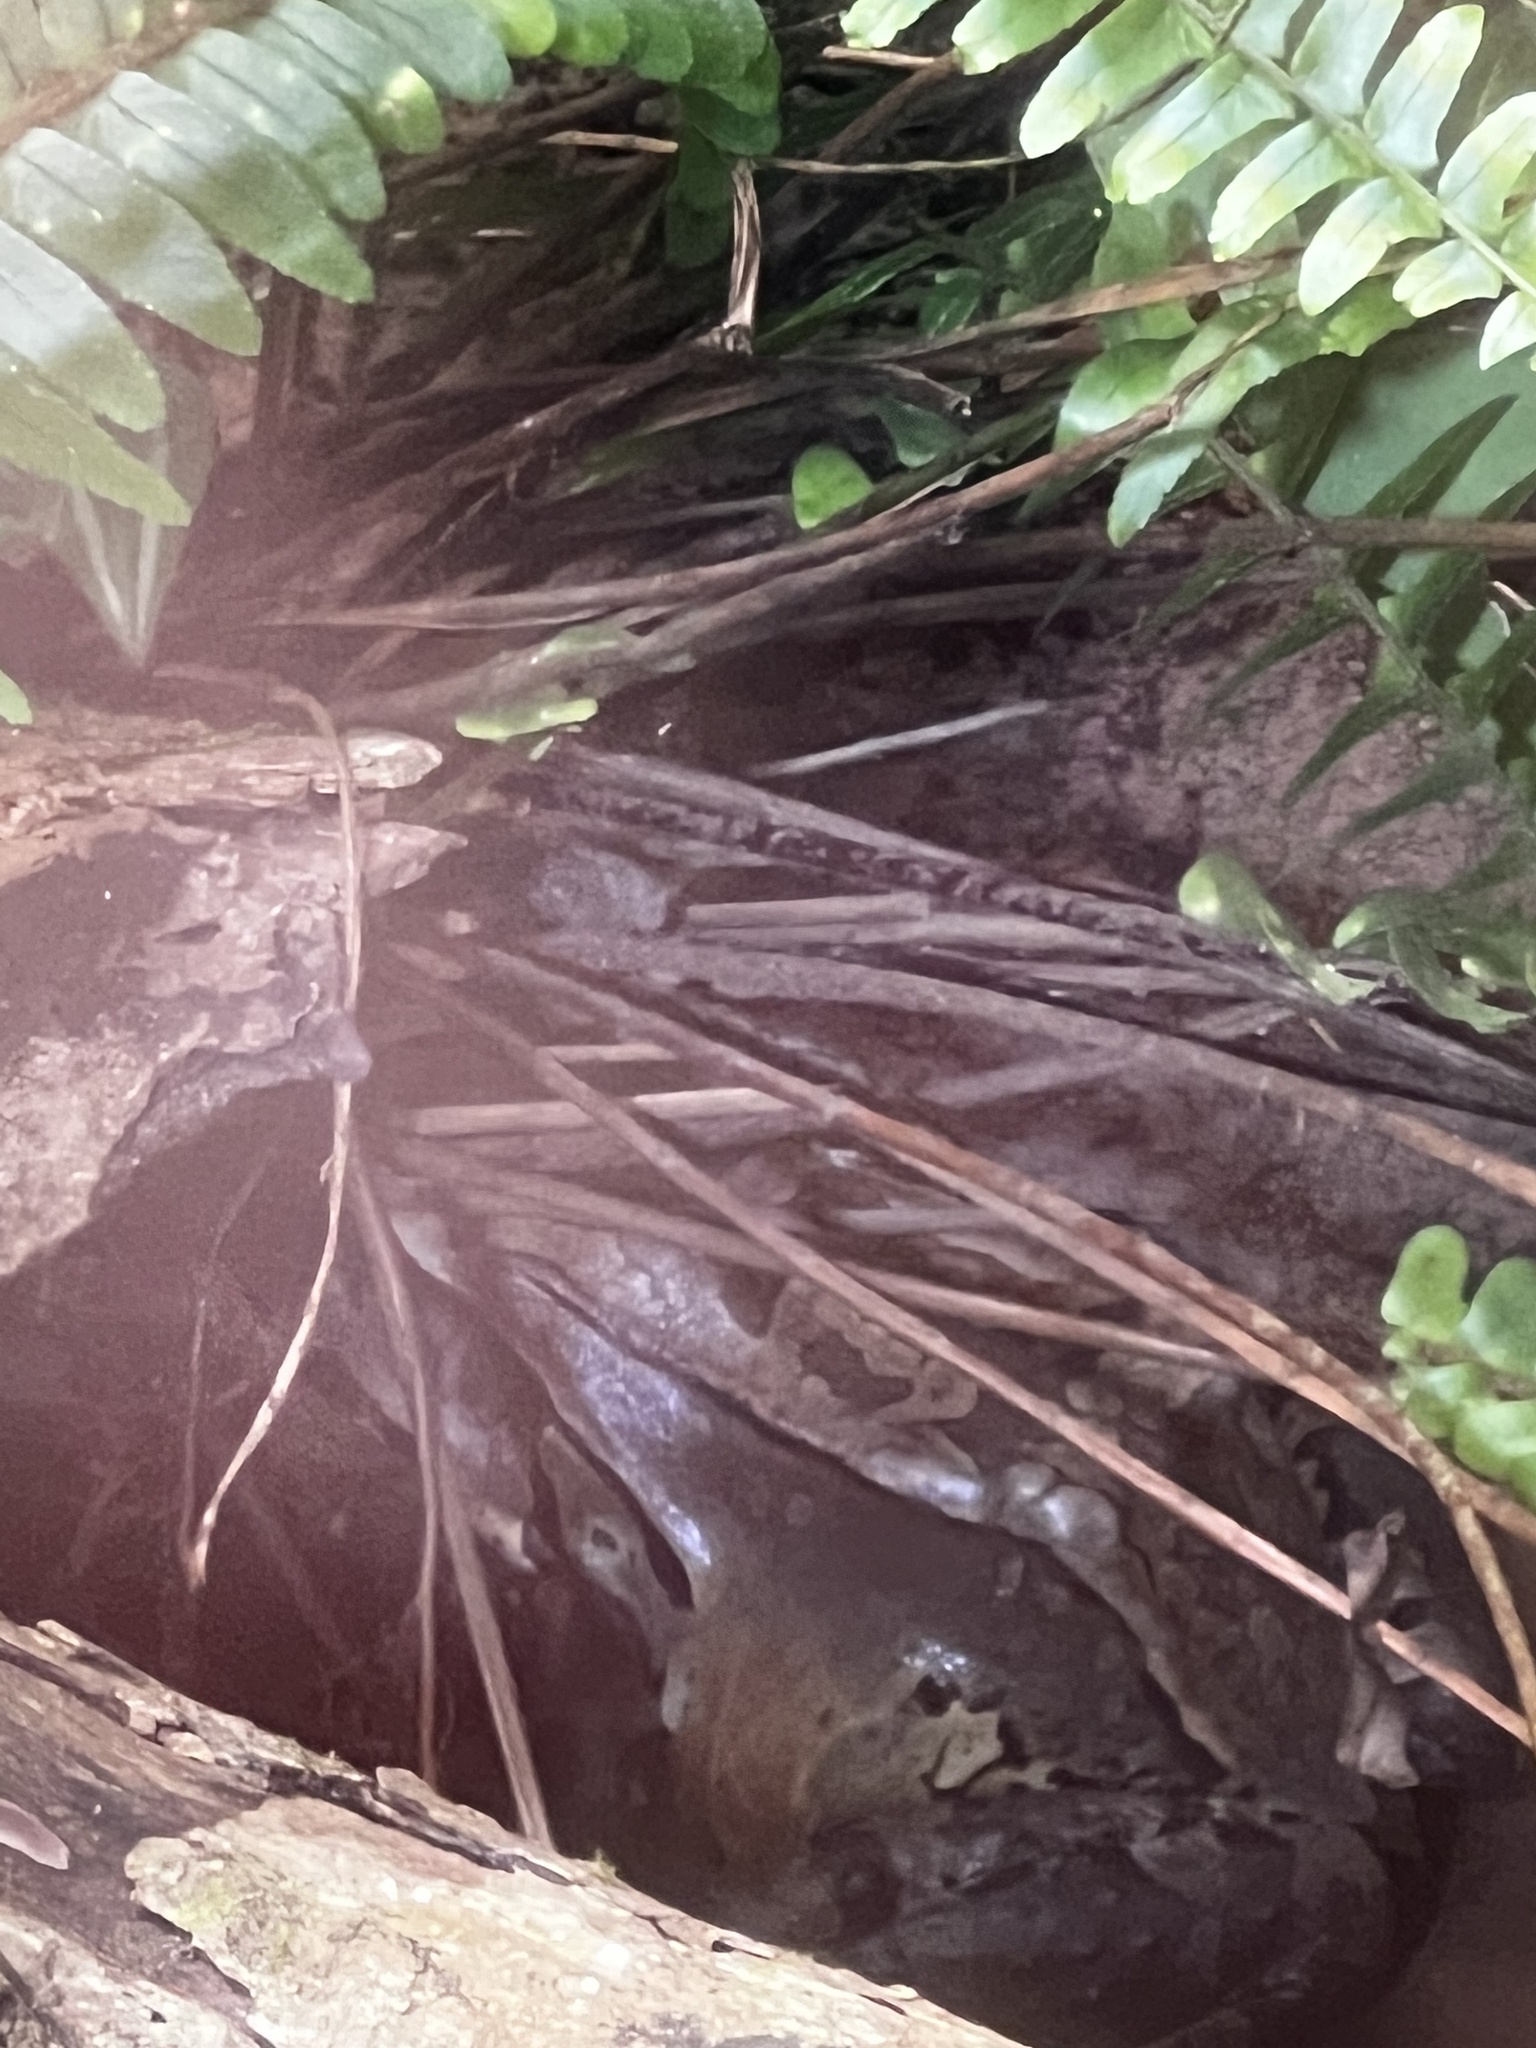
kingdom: Animalia
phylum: Chordata
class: Amphibia
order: Anura
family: Leptodactylidae
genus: Leptodactylus
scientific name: Leptodactylus savagei
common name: Savage's thin-toed frog
